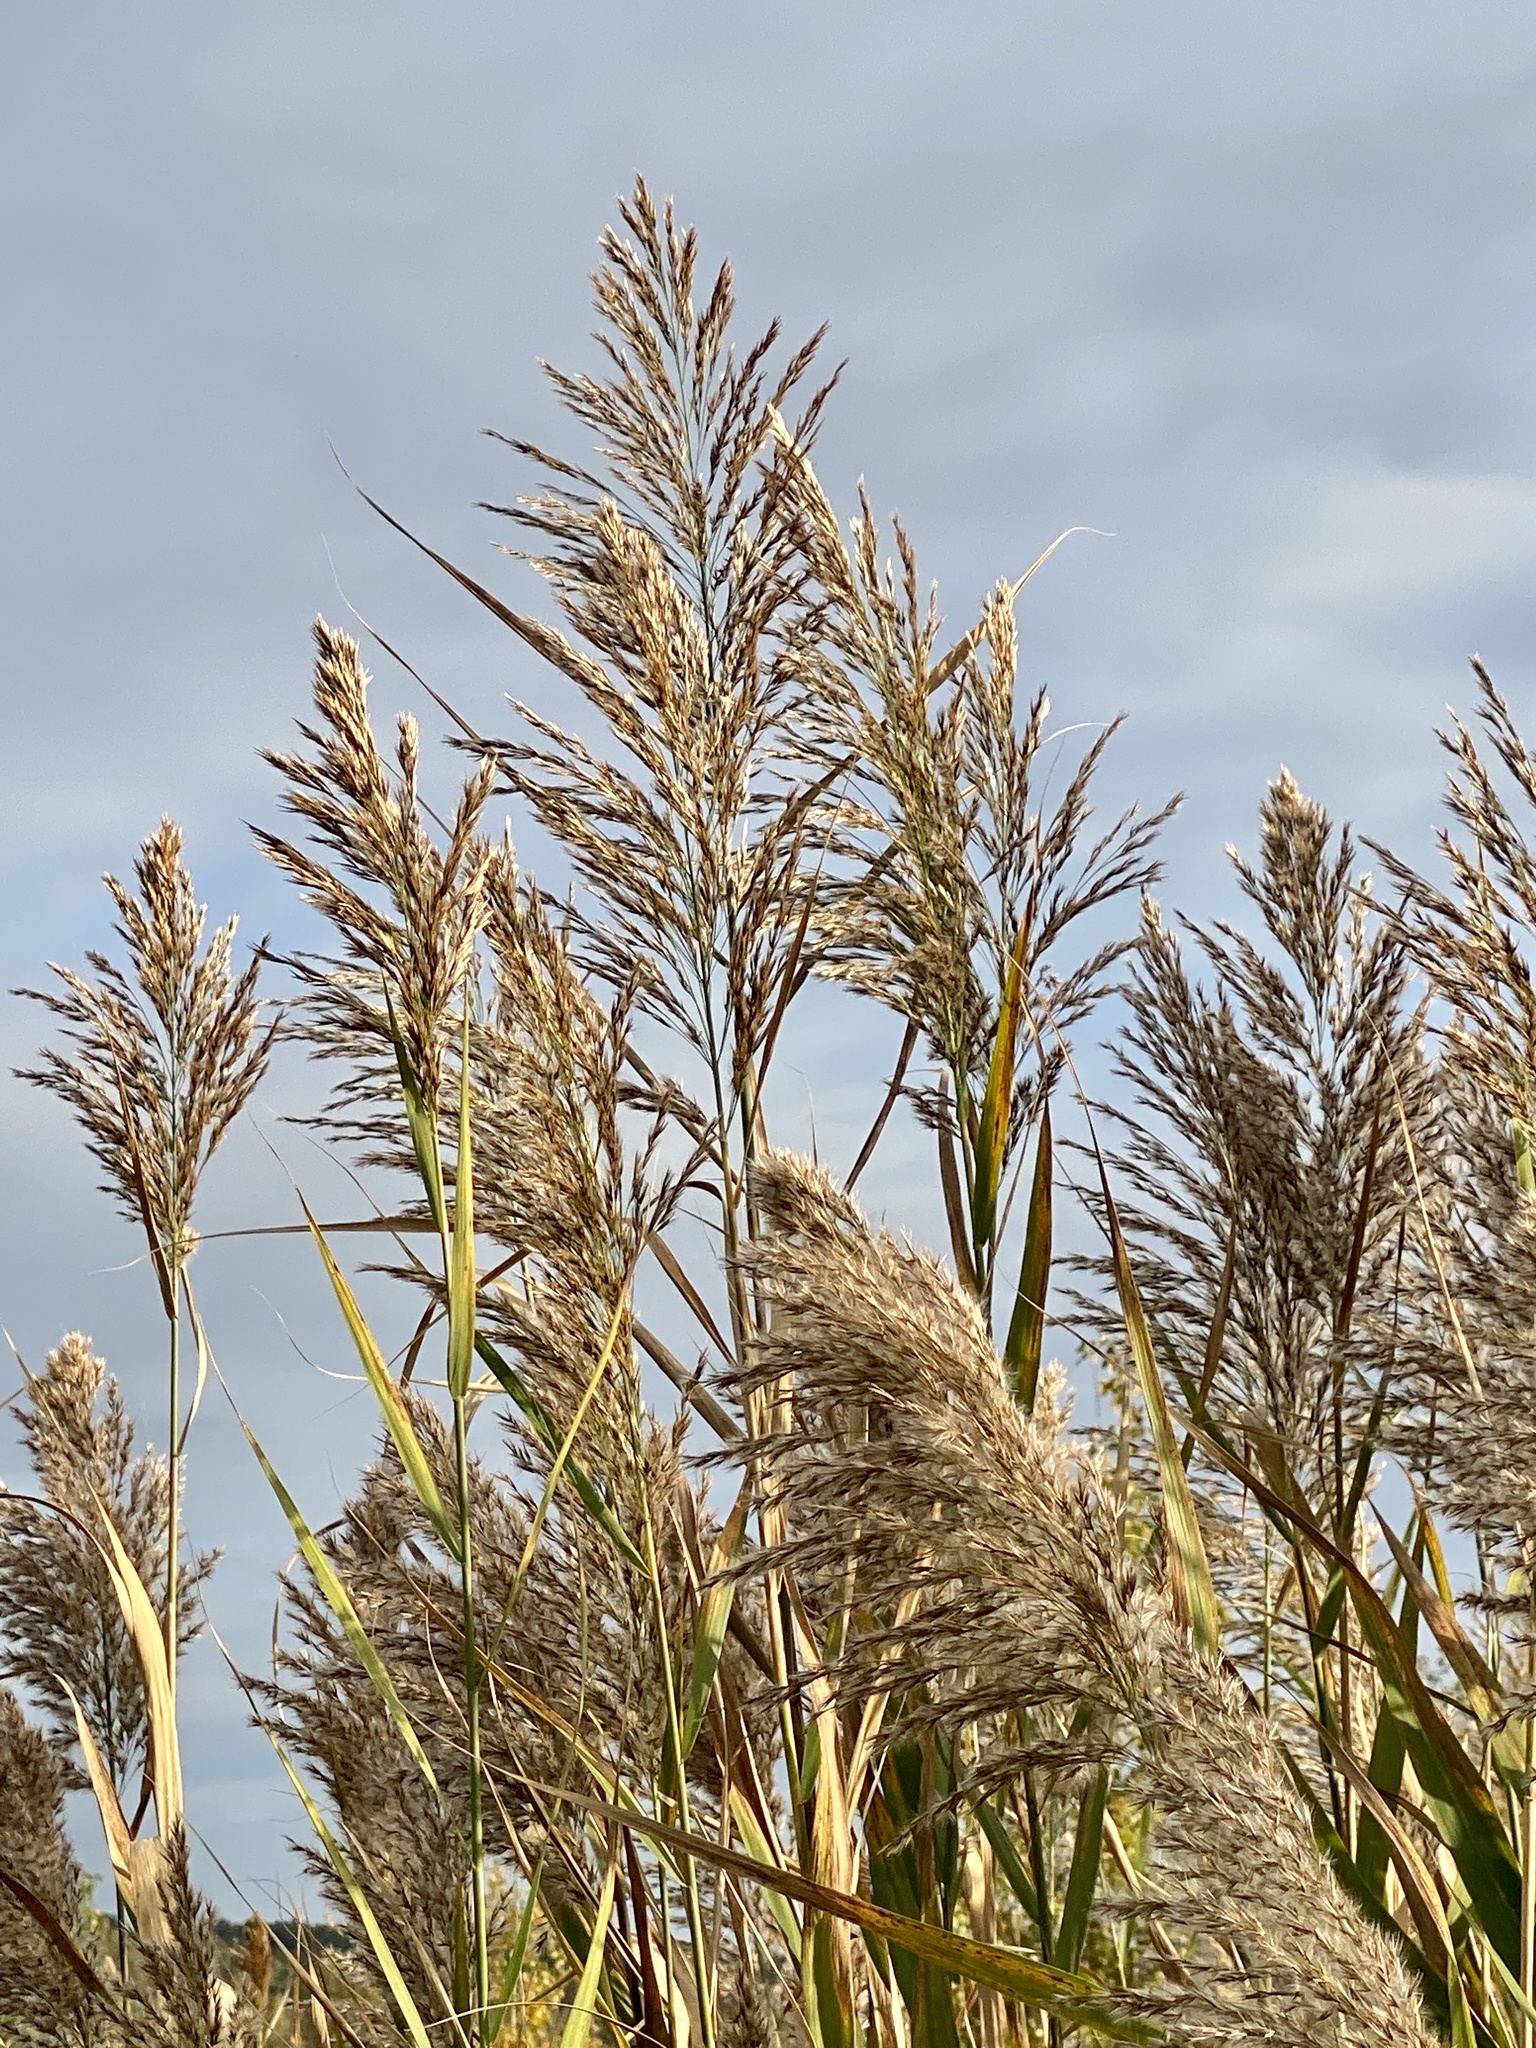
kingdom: Plantae
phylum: Tracheophyta
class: Liliopsida
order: Poales
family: Poaceae
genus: Phragmites
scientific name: Phragmites australis
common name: Common reed
